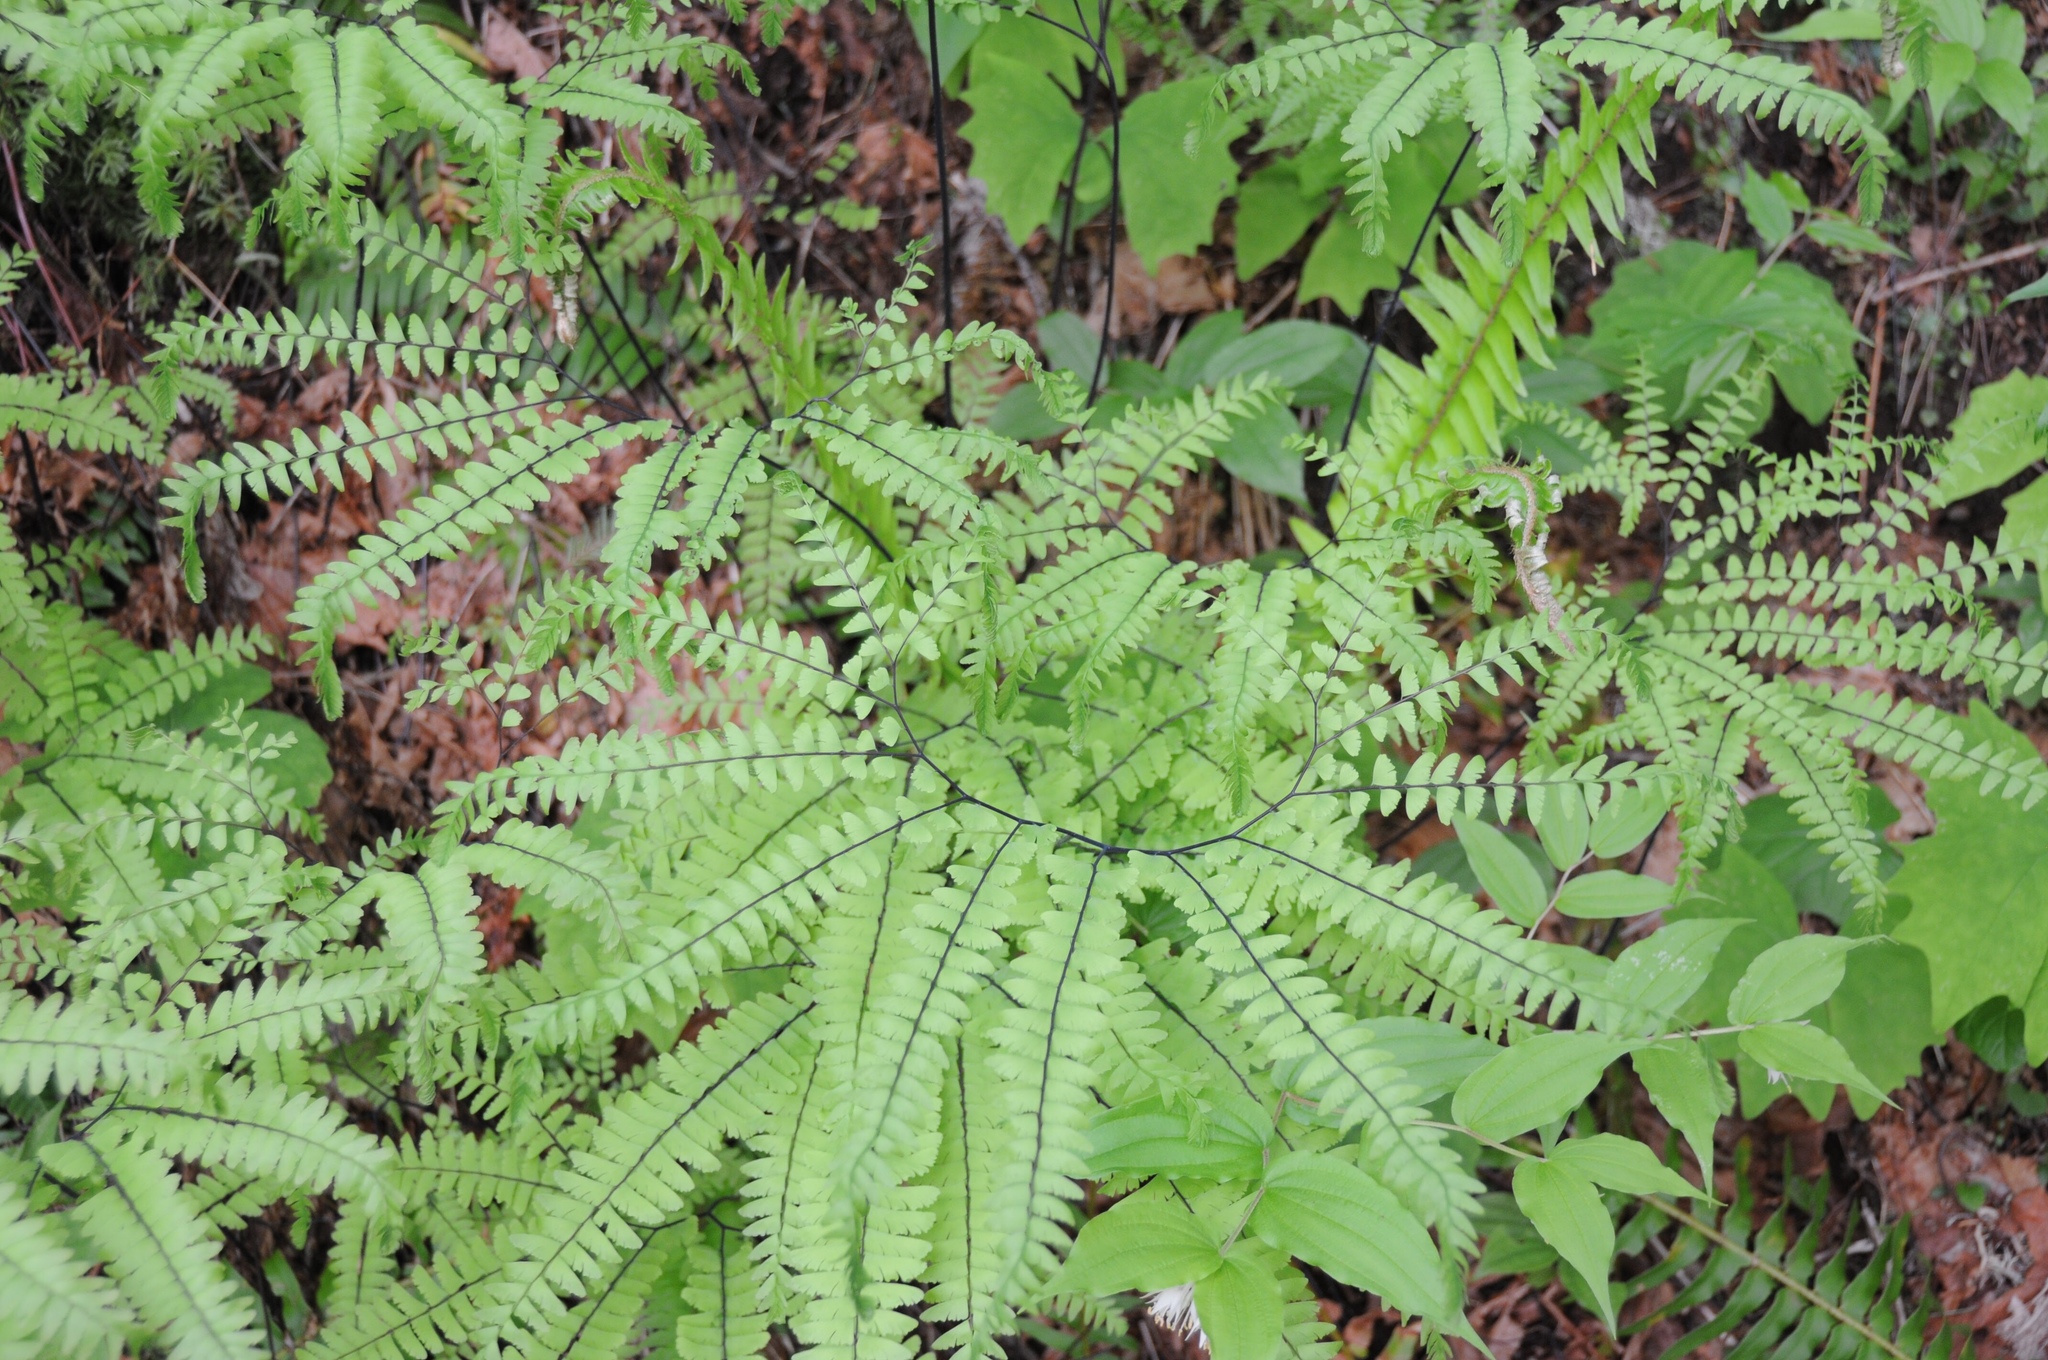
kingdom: Plantae
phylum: Tracheophyta
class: Polypodiopsida
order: Polypodiales
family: Pteridaceae
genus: Adiantum
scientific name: Adiantum aleuticum
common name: Aleutian maidenhair fern
